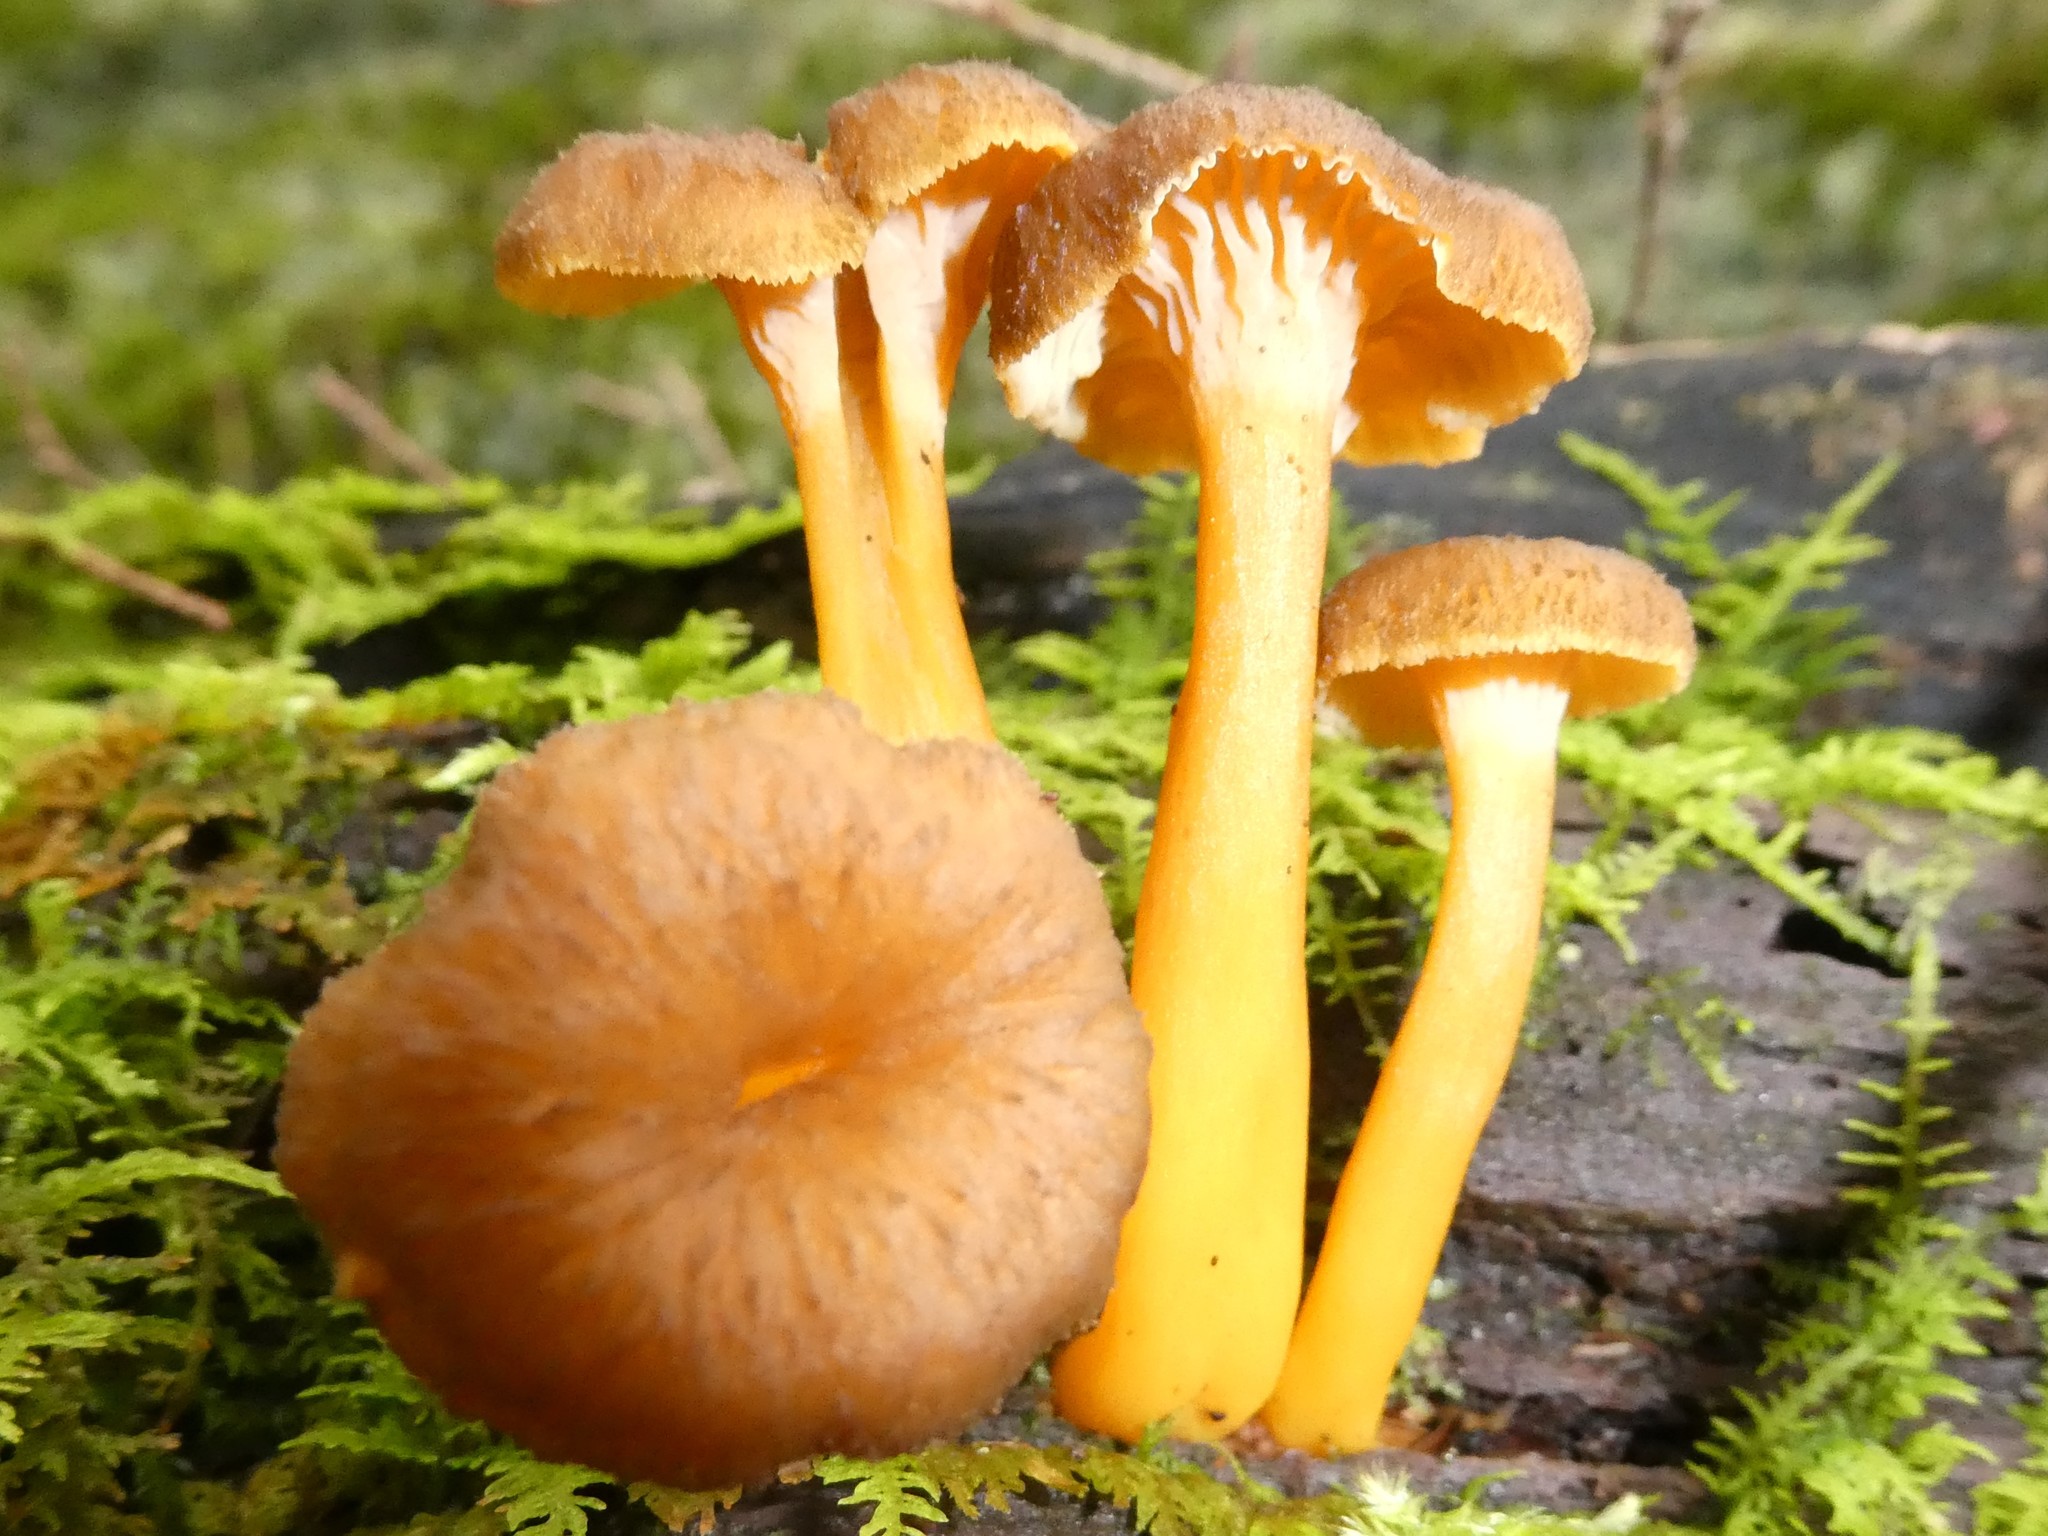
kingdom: Fungi
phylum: Basidiomycota
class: Agaricomycetes
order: Cantharellales
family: Hydnaceae
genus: Craterellus
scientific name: Craterellus tubaeformis
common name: Yellowfoot
